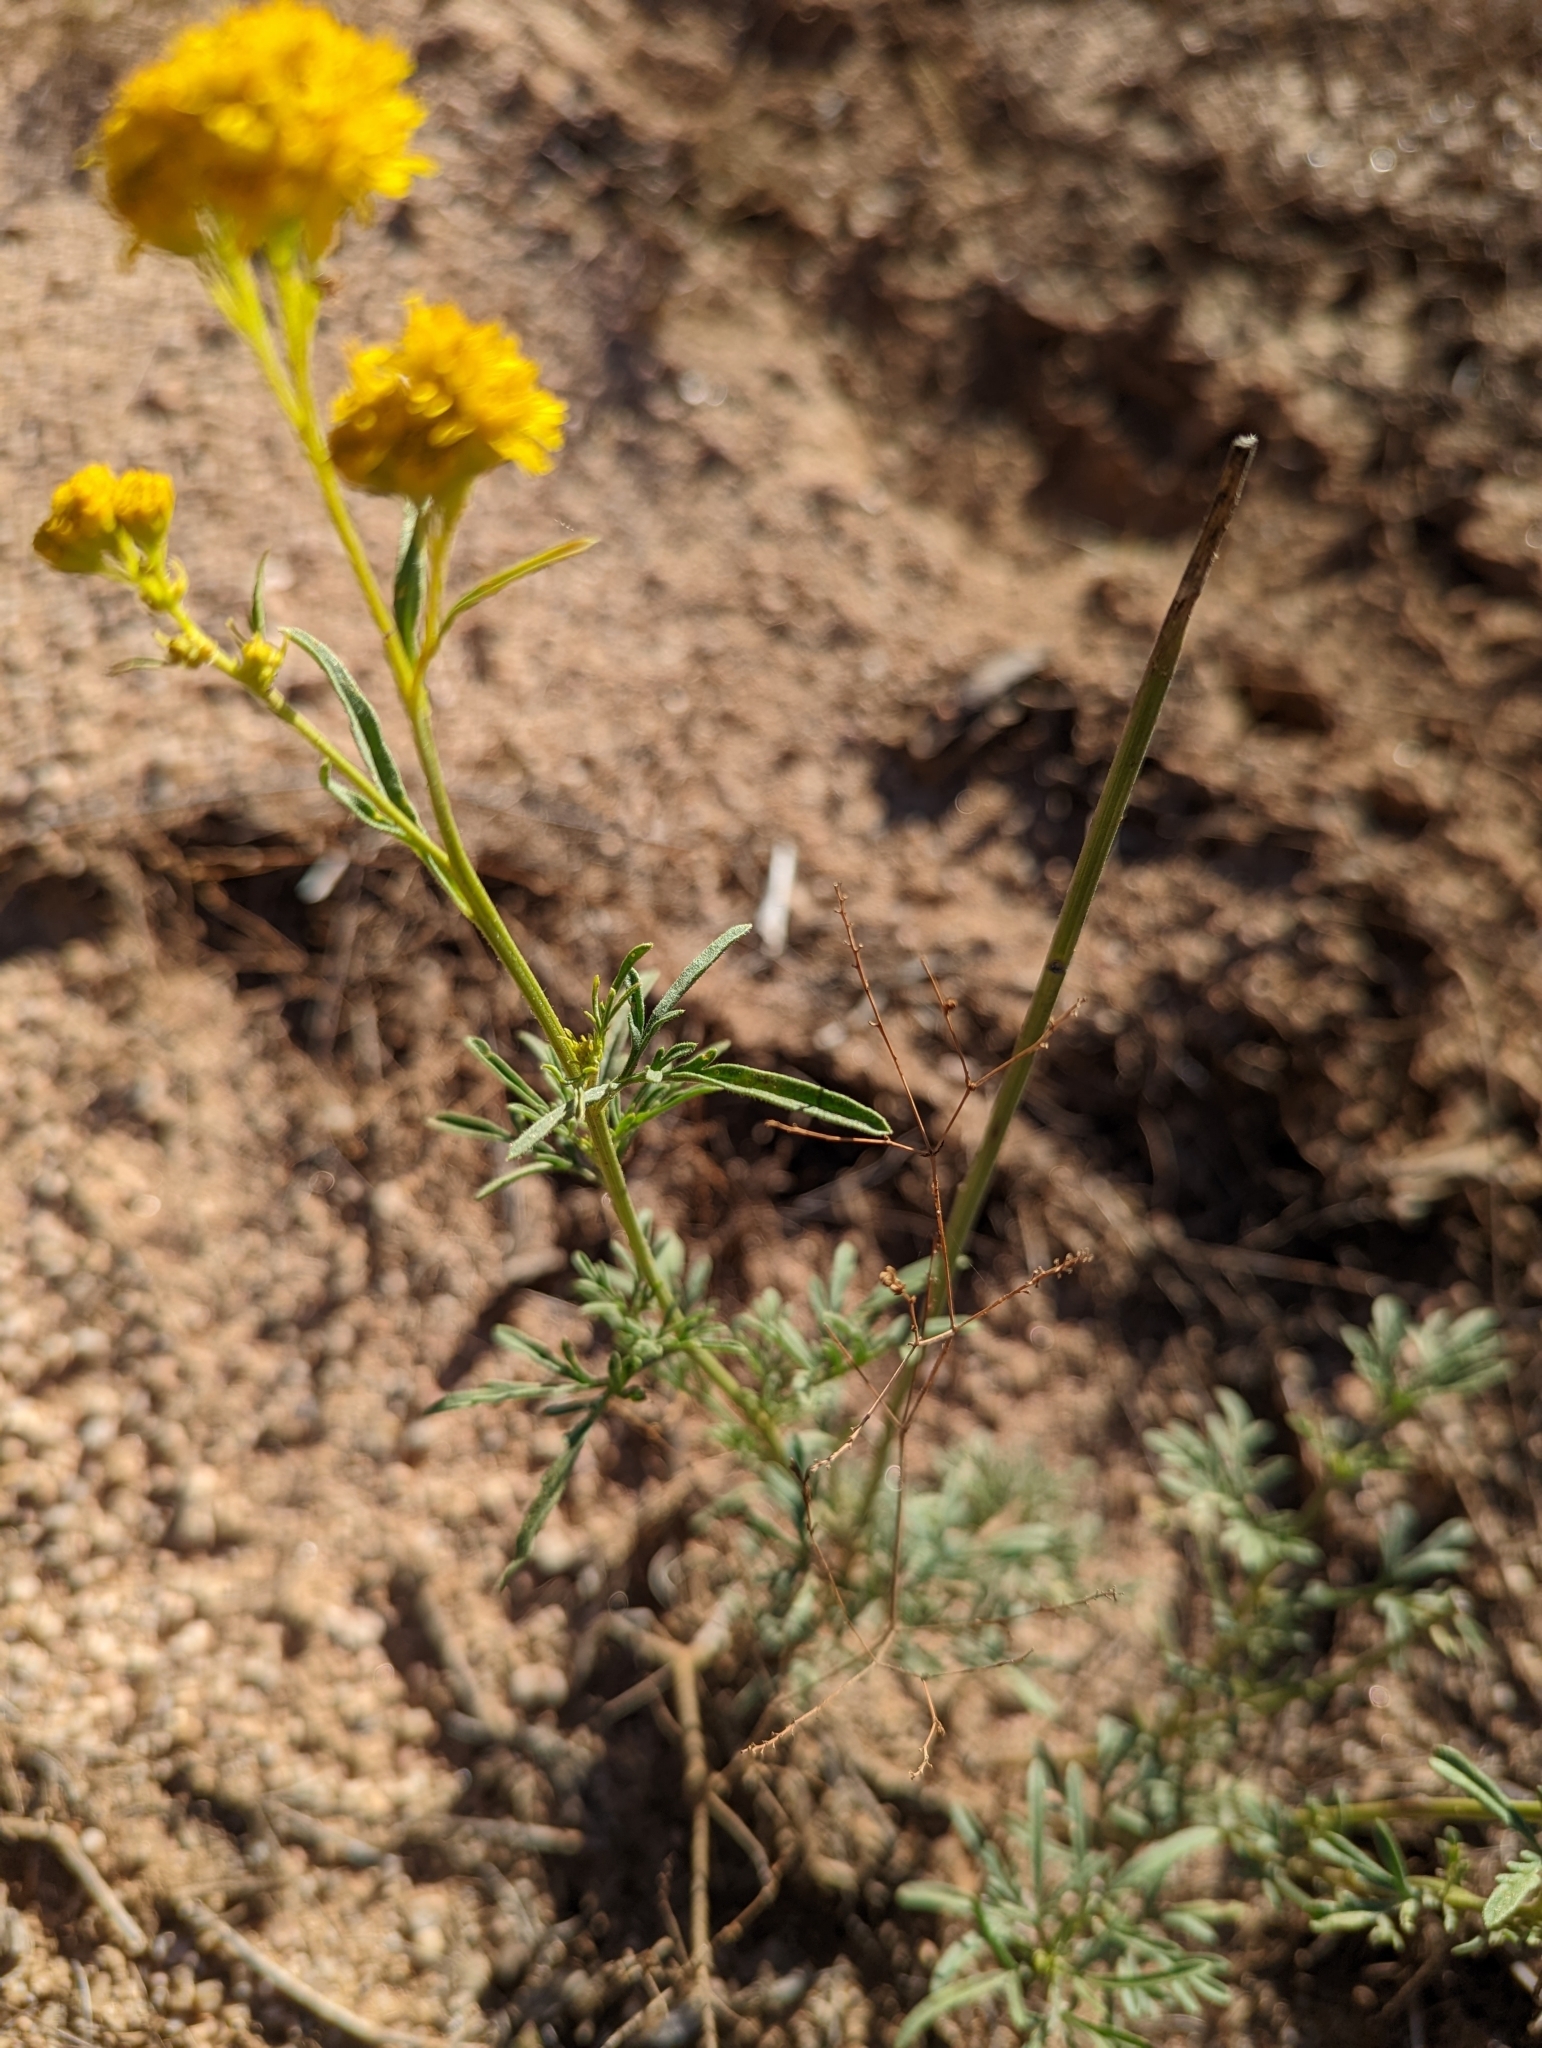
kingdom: Plantae
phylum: Tracheophyta
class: Magnoliopsida
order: Asterales
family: Asteraceae
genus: Hymenothrix
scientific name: Hymenothrix wislizeni
